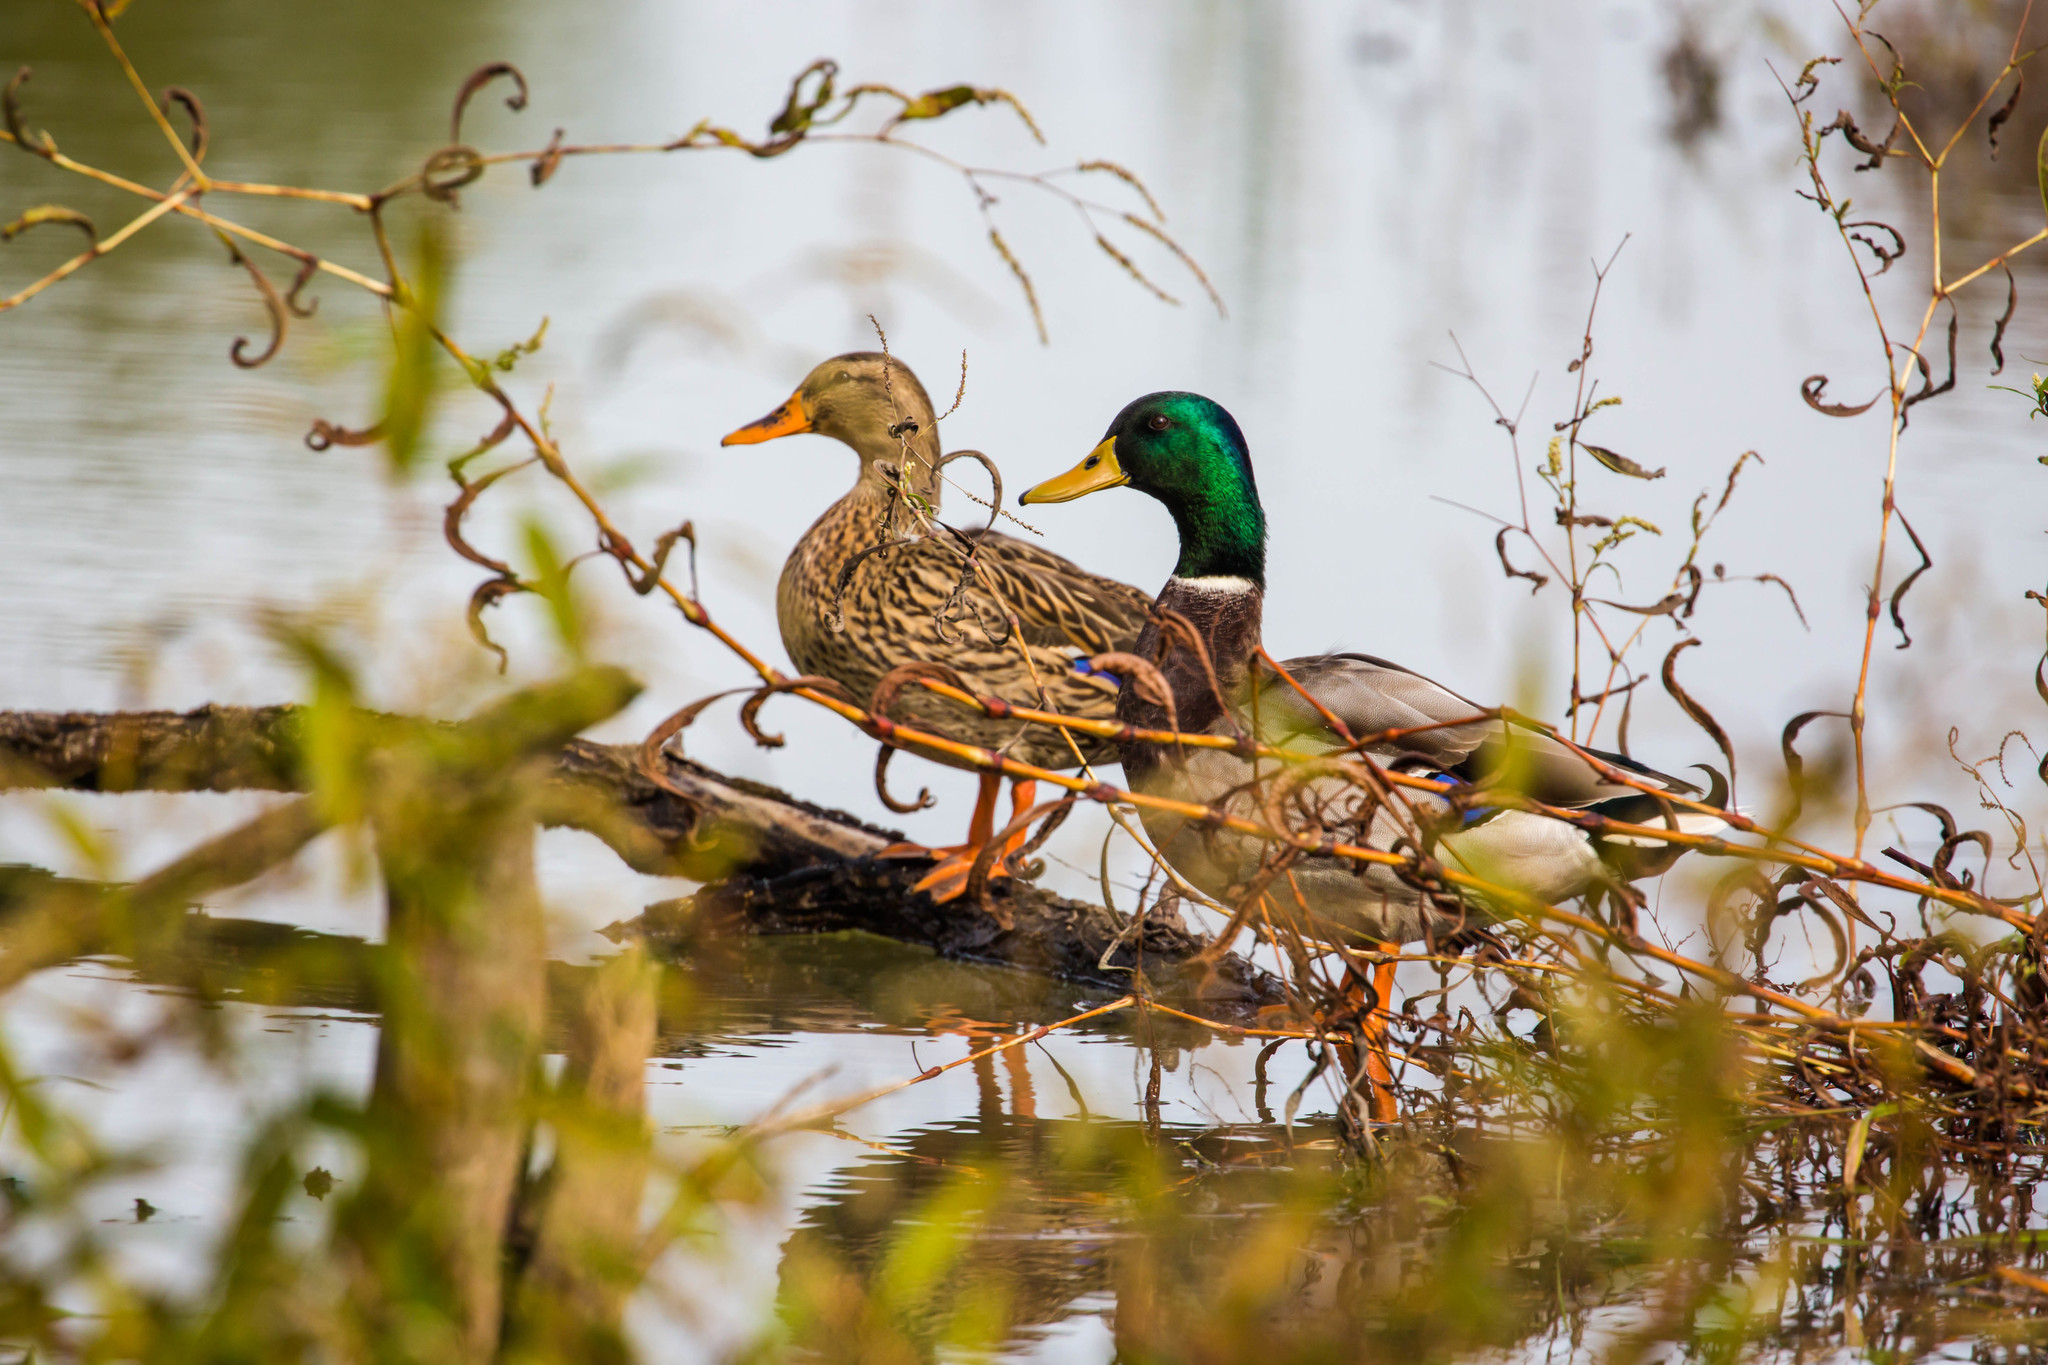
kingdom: Animalia
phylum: Chordata
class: Aves
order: Anseriformes
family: Anatidae
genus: Anas
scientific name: Anas platyrhynchos
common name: Mallard
